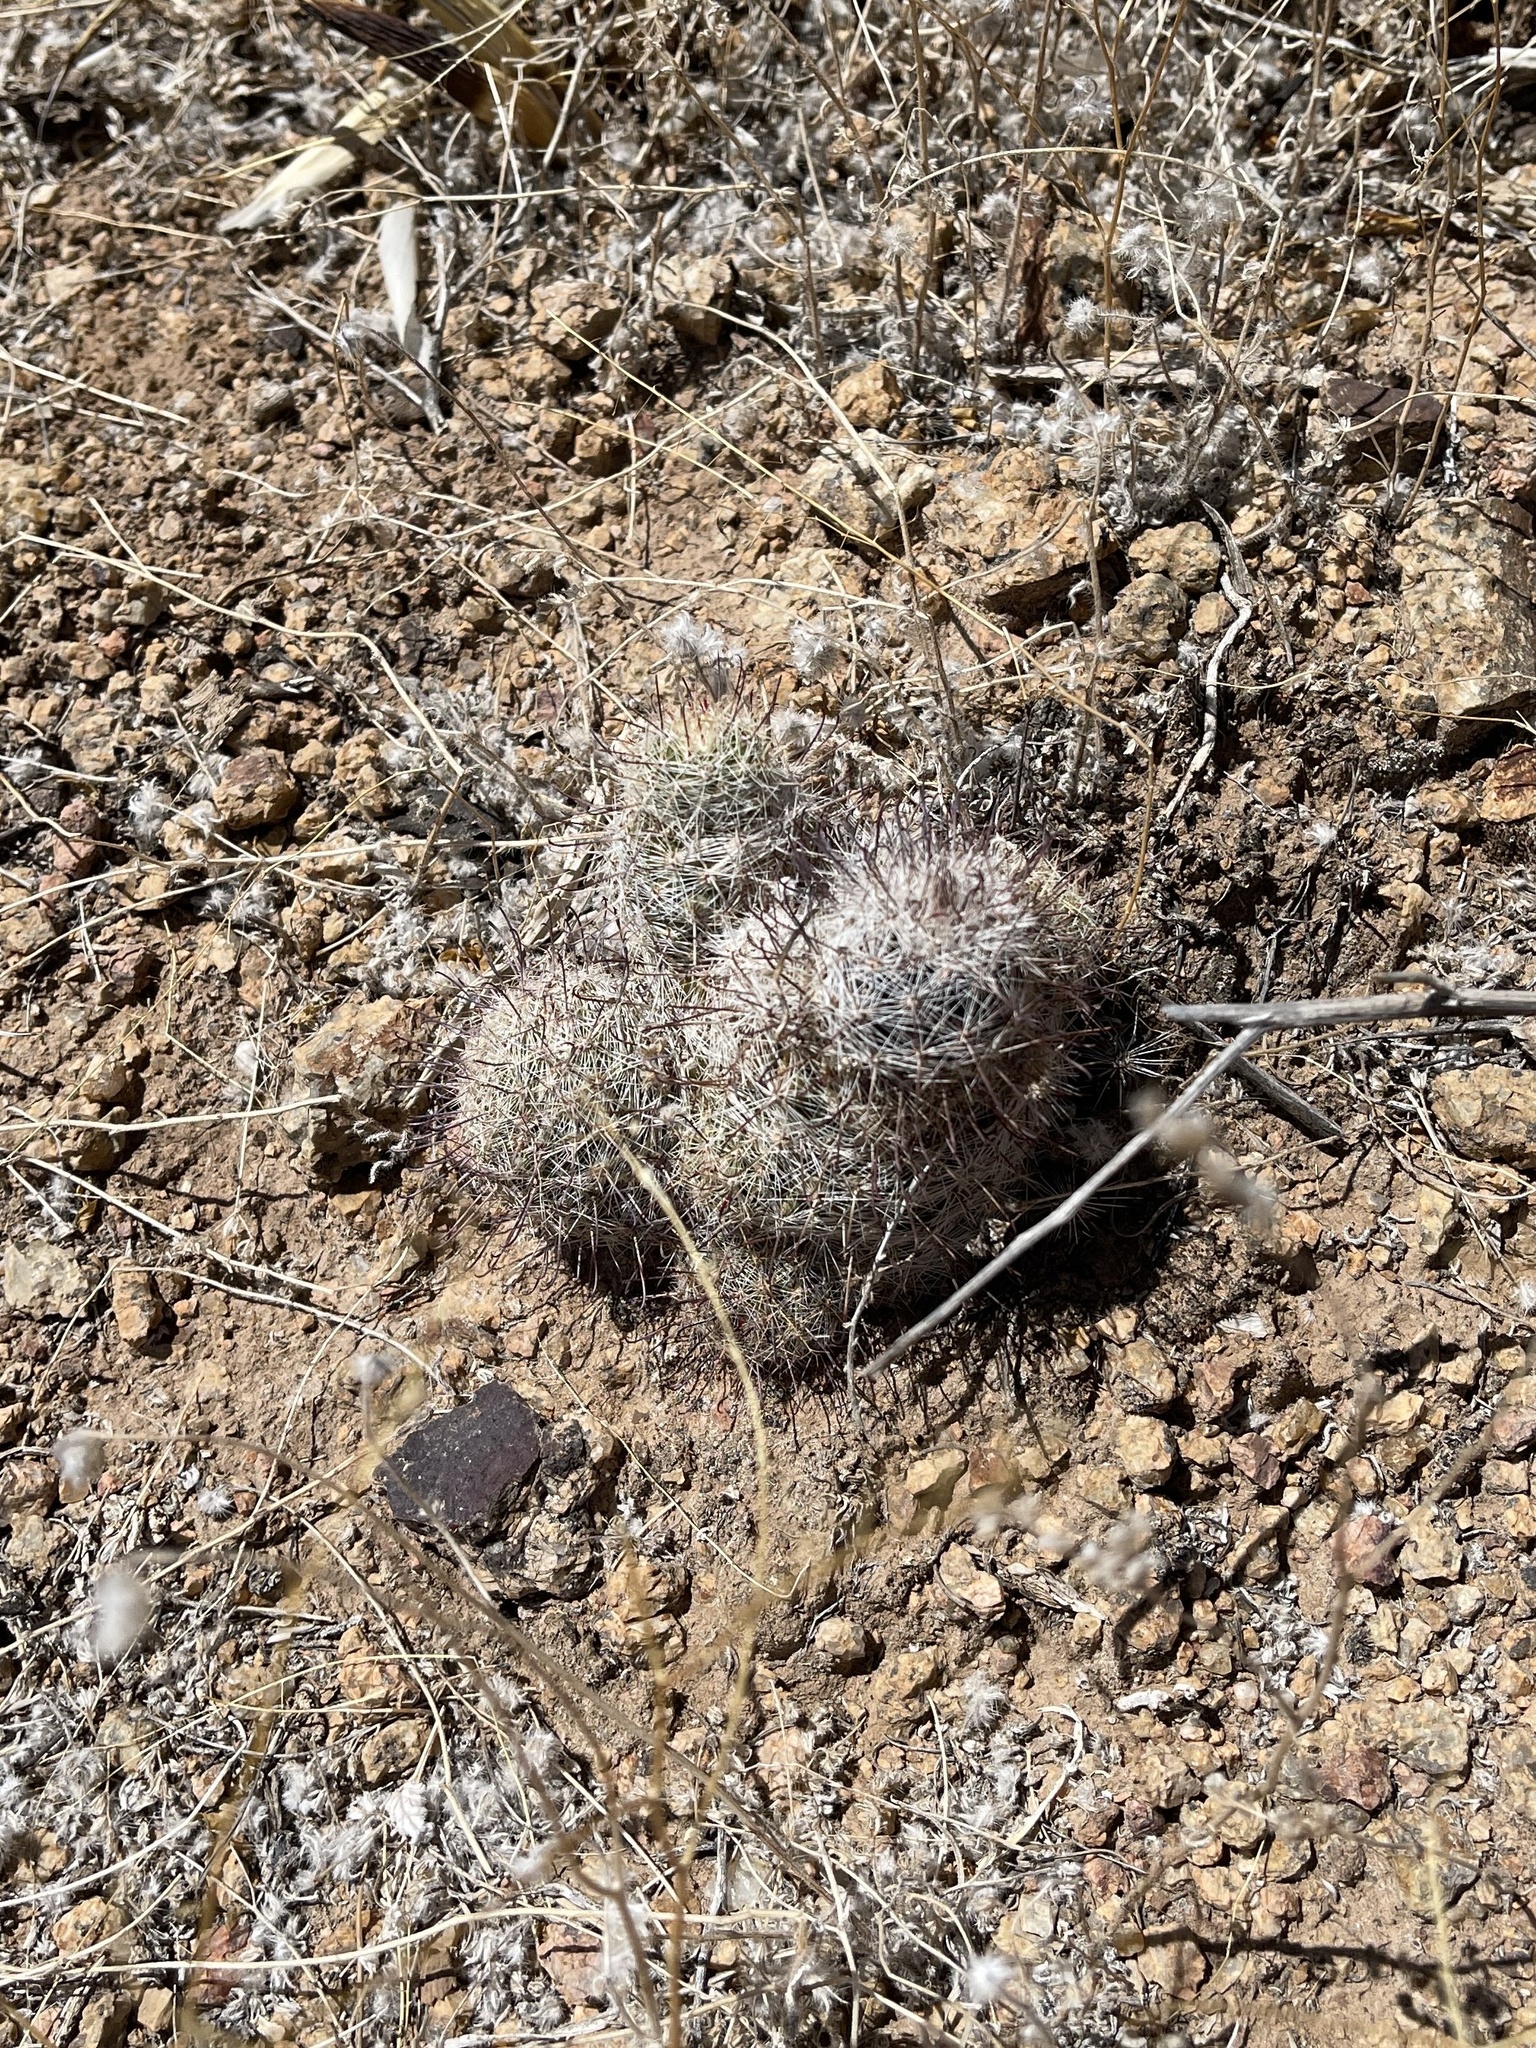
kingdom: Plantae
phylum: Tracheophyta
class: Magnoliopsida
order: Caryophyllales
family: Cactaceae
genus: Cochemiea
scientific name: Cochemiea grahamii
